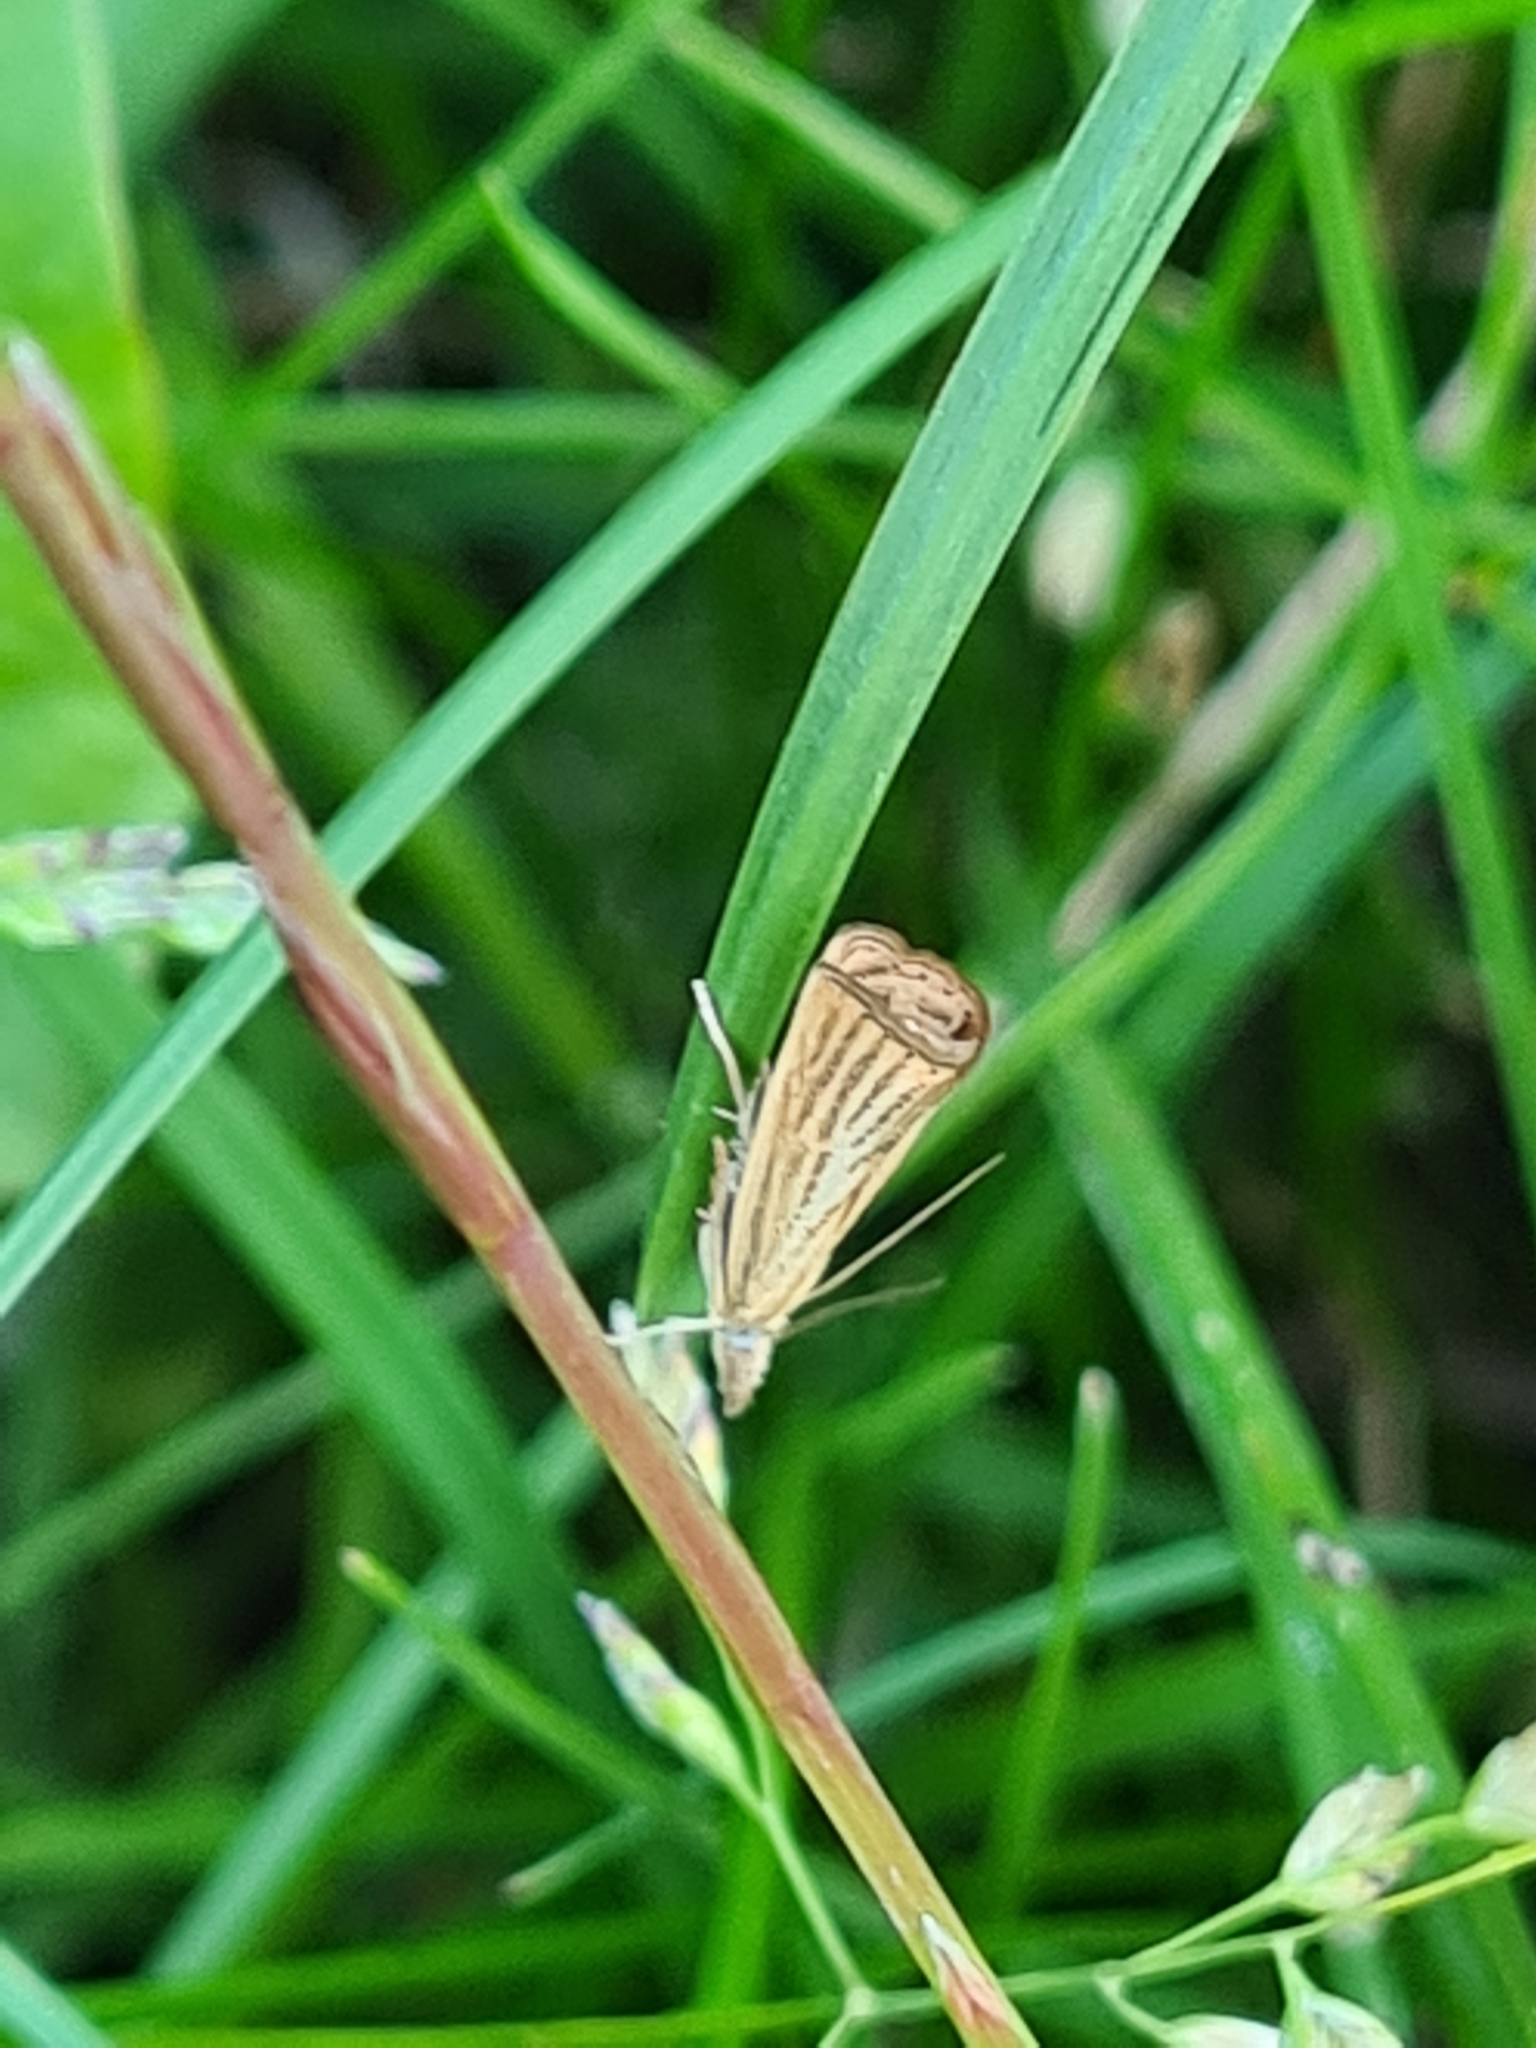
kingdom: Animalia
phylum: Arthropoda
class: Insecta
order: Lepidoptera
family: Crambidae
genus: Agriphila
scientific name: Agriphila straminella
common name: Straw grass-veneer
